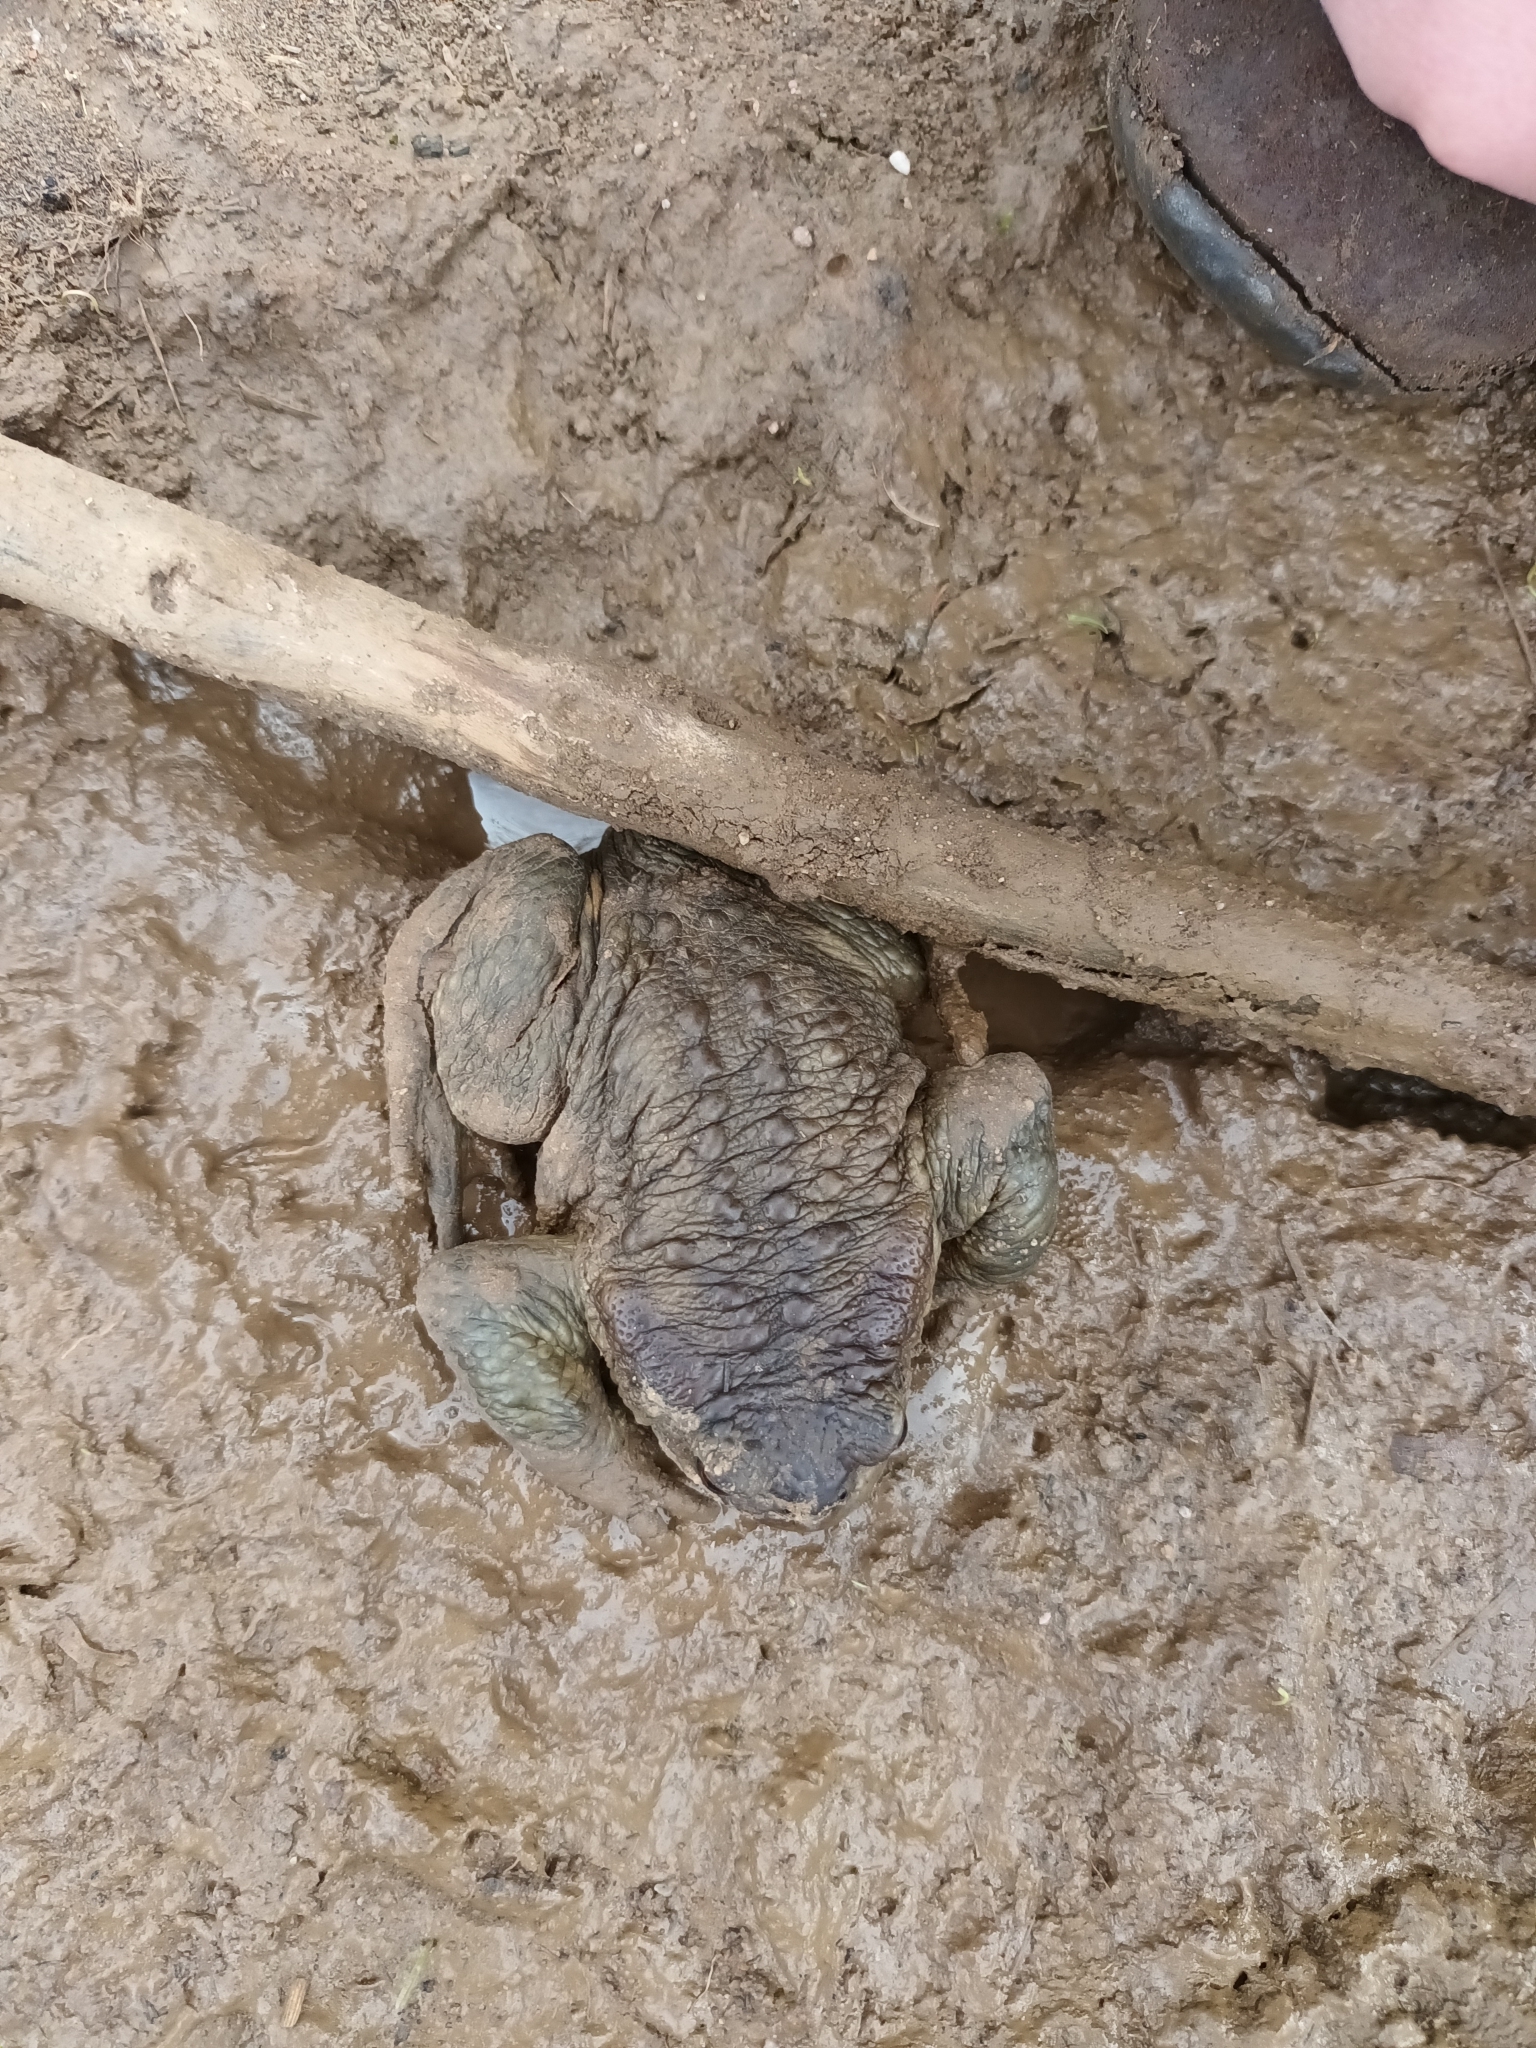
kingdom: Animalia
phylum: Chordata
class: Amphibia
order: Anura
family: Bufonidae
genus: Bufo
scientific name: Bufo bufo
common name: Common toad
